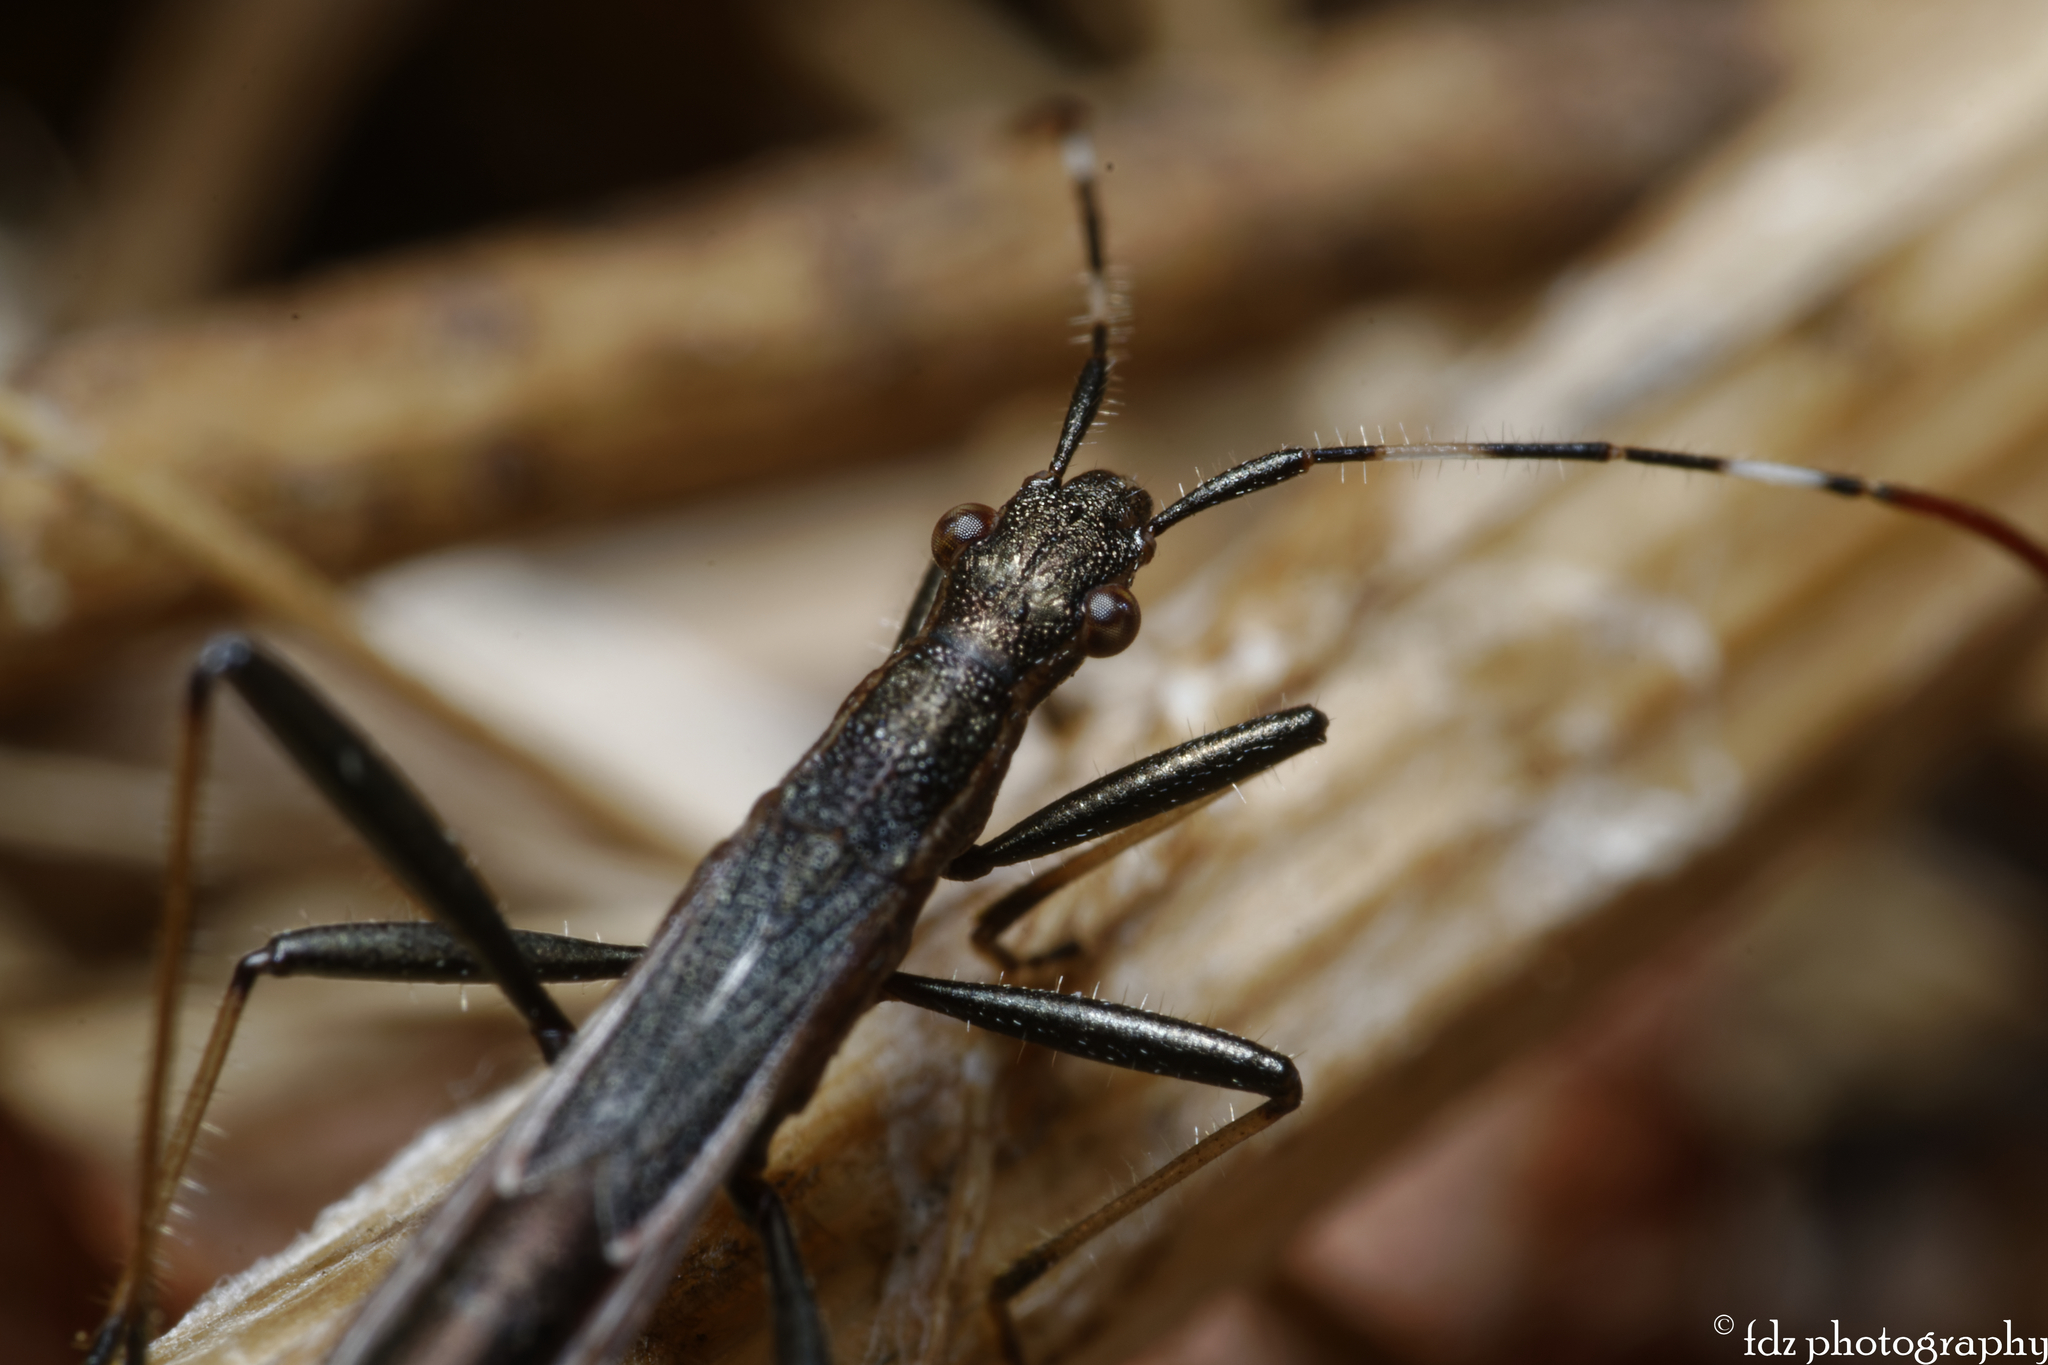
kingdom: Animalia
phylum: Arthropoda
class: Insecta
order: Hemiptera
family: Alydidae
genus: Micrelytra
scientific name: Micrelytra fossularum
